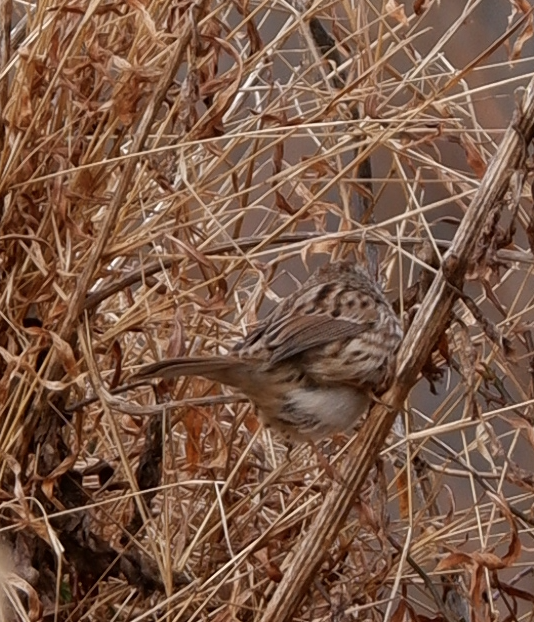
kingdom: Animalia
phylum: Chordata
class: Aves
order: Passeriformes
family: Passerellidae
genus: Melospiza
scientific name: Melospiza melodia
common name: Song sparrow
